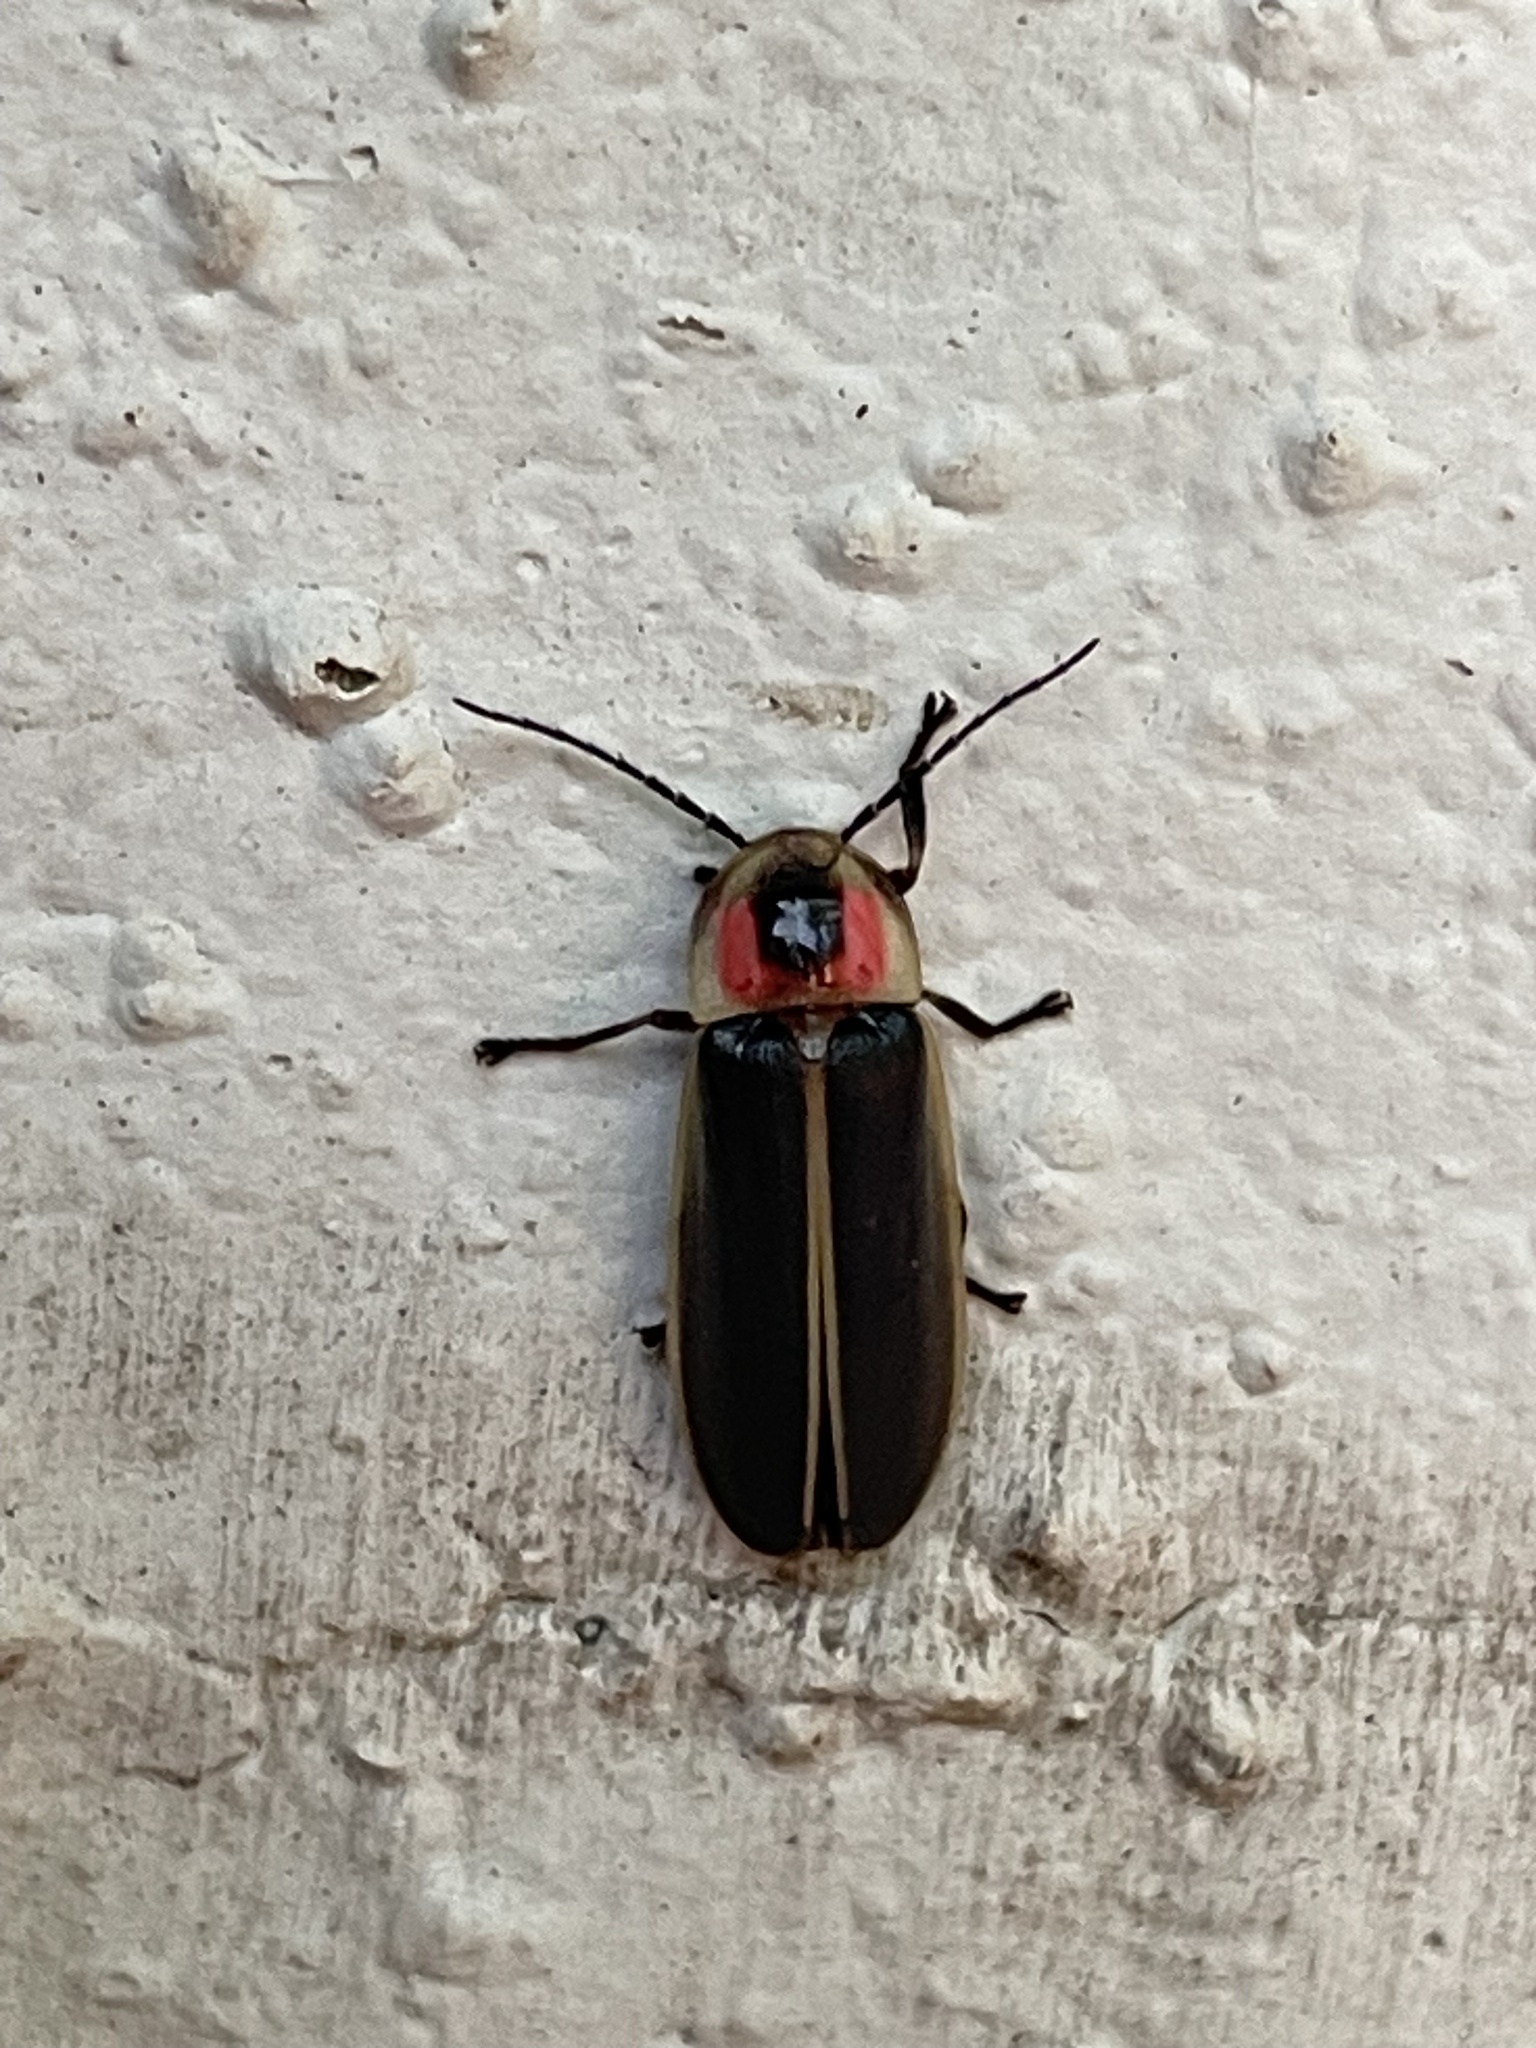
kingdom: Animalia
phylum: Arthropoda
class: Insecta
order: Coleoptera
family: Lampyridae
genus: Photinus
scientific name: Photinus pyralis
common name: Big dipper firefly
